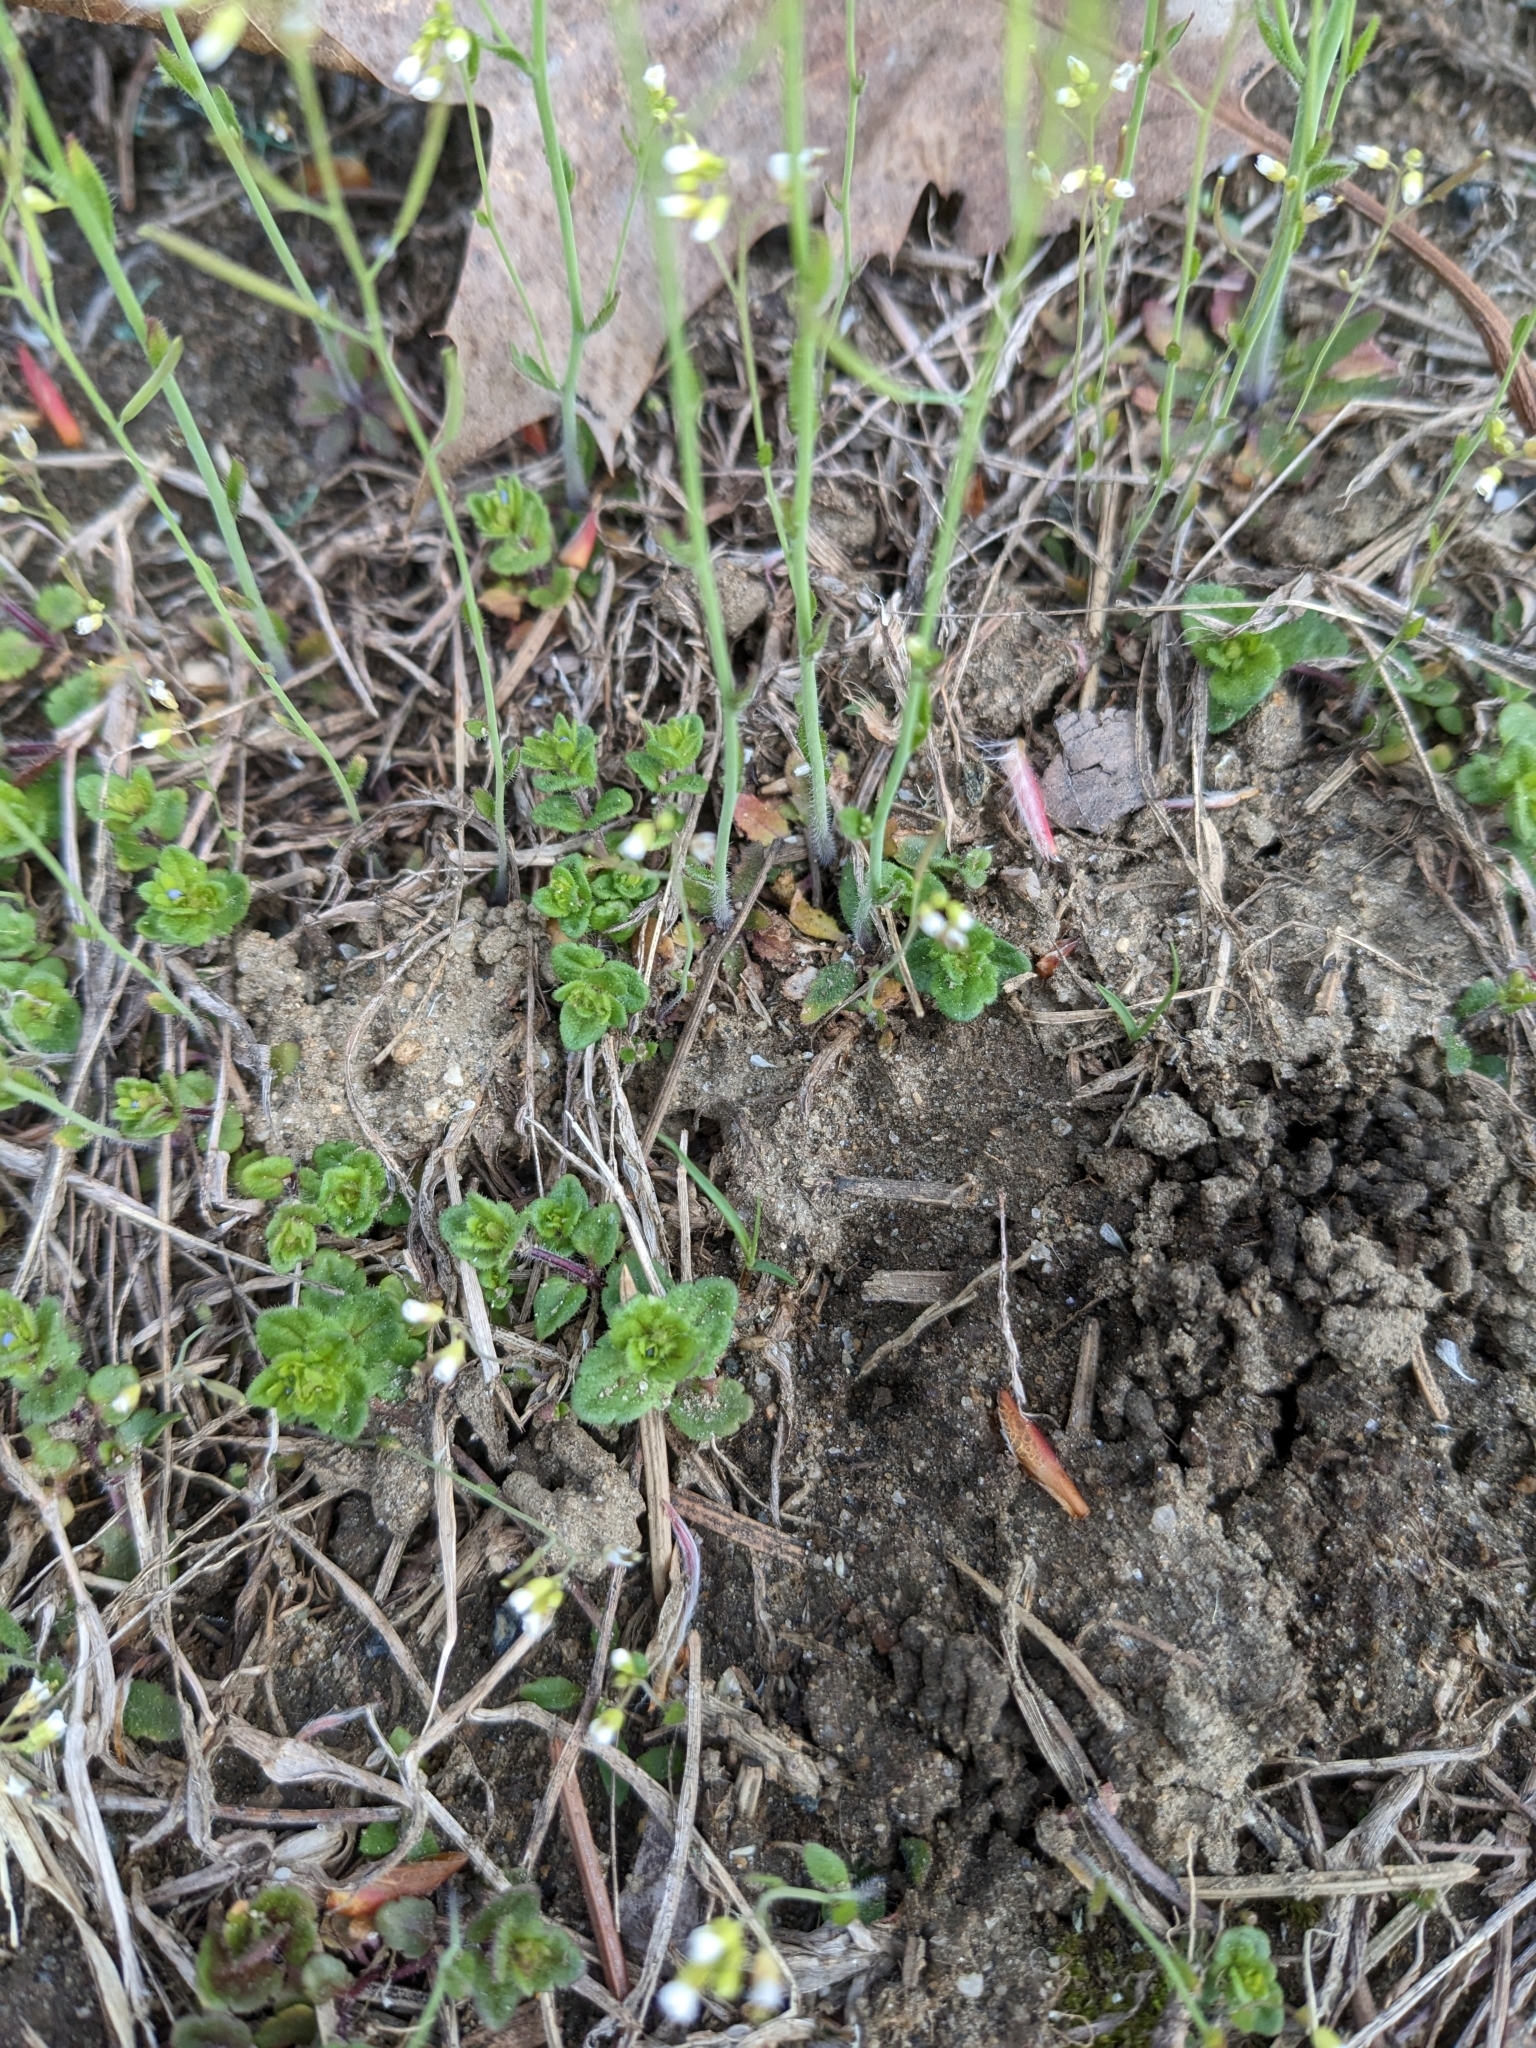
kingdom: Plantae
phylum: Tracheophyta
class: Magnoliopsida
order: Brassicales
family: Brassicaceae
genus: Arabidopsis
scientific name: Arabidopsis thaliana
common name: Thale cress
